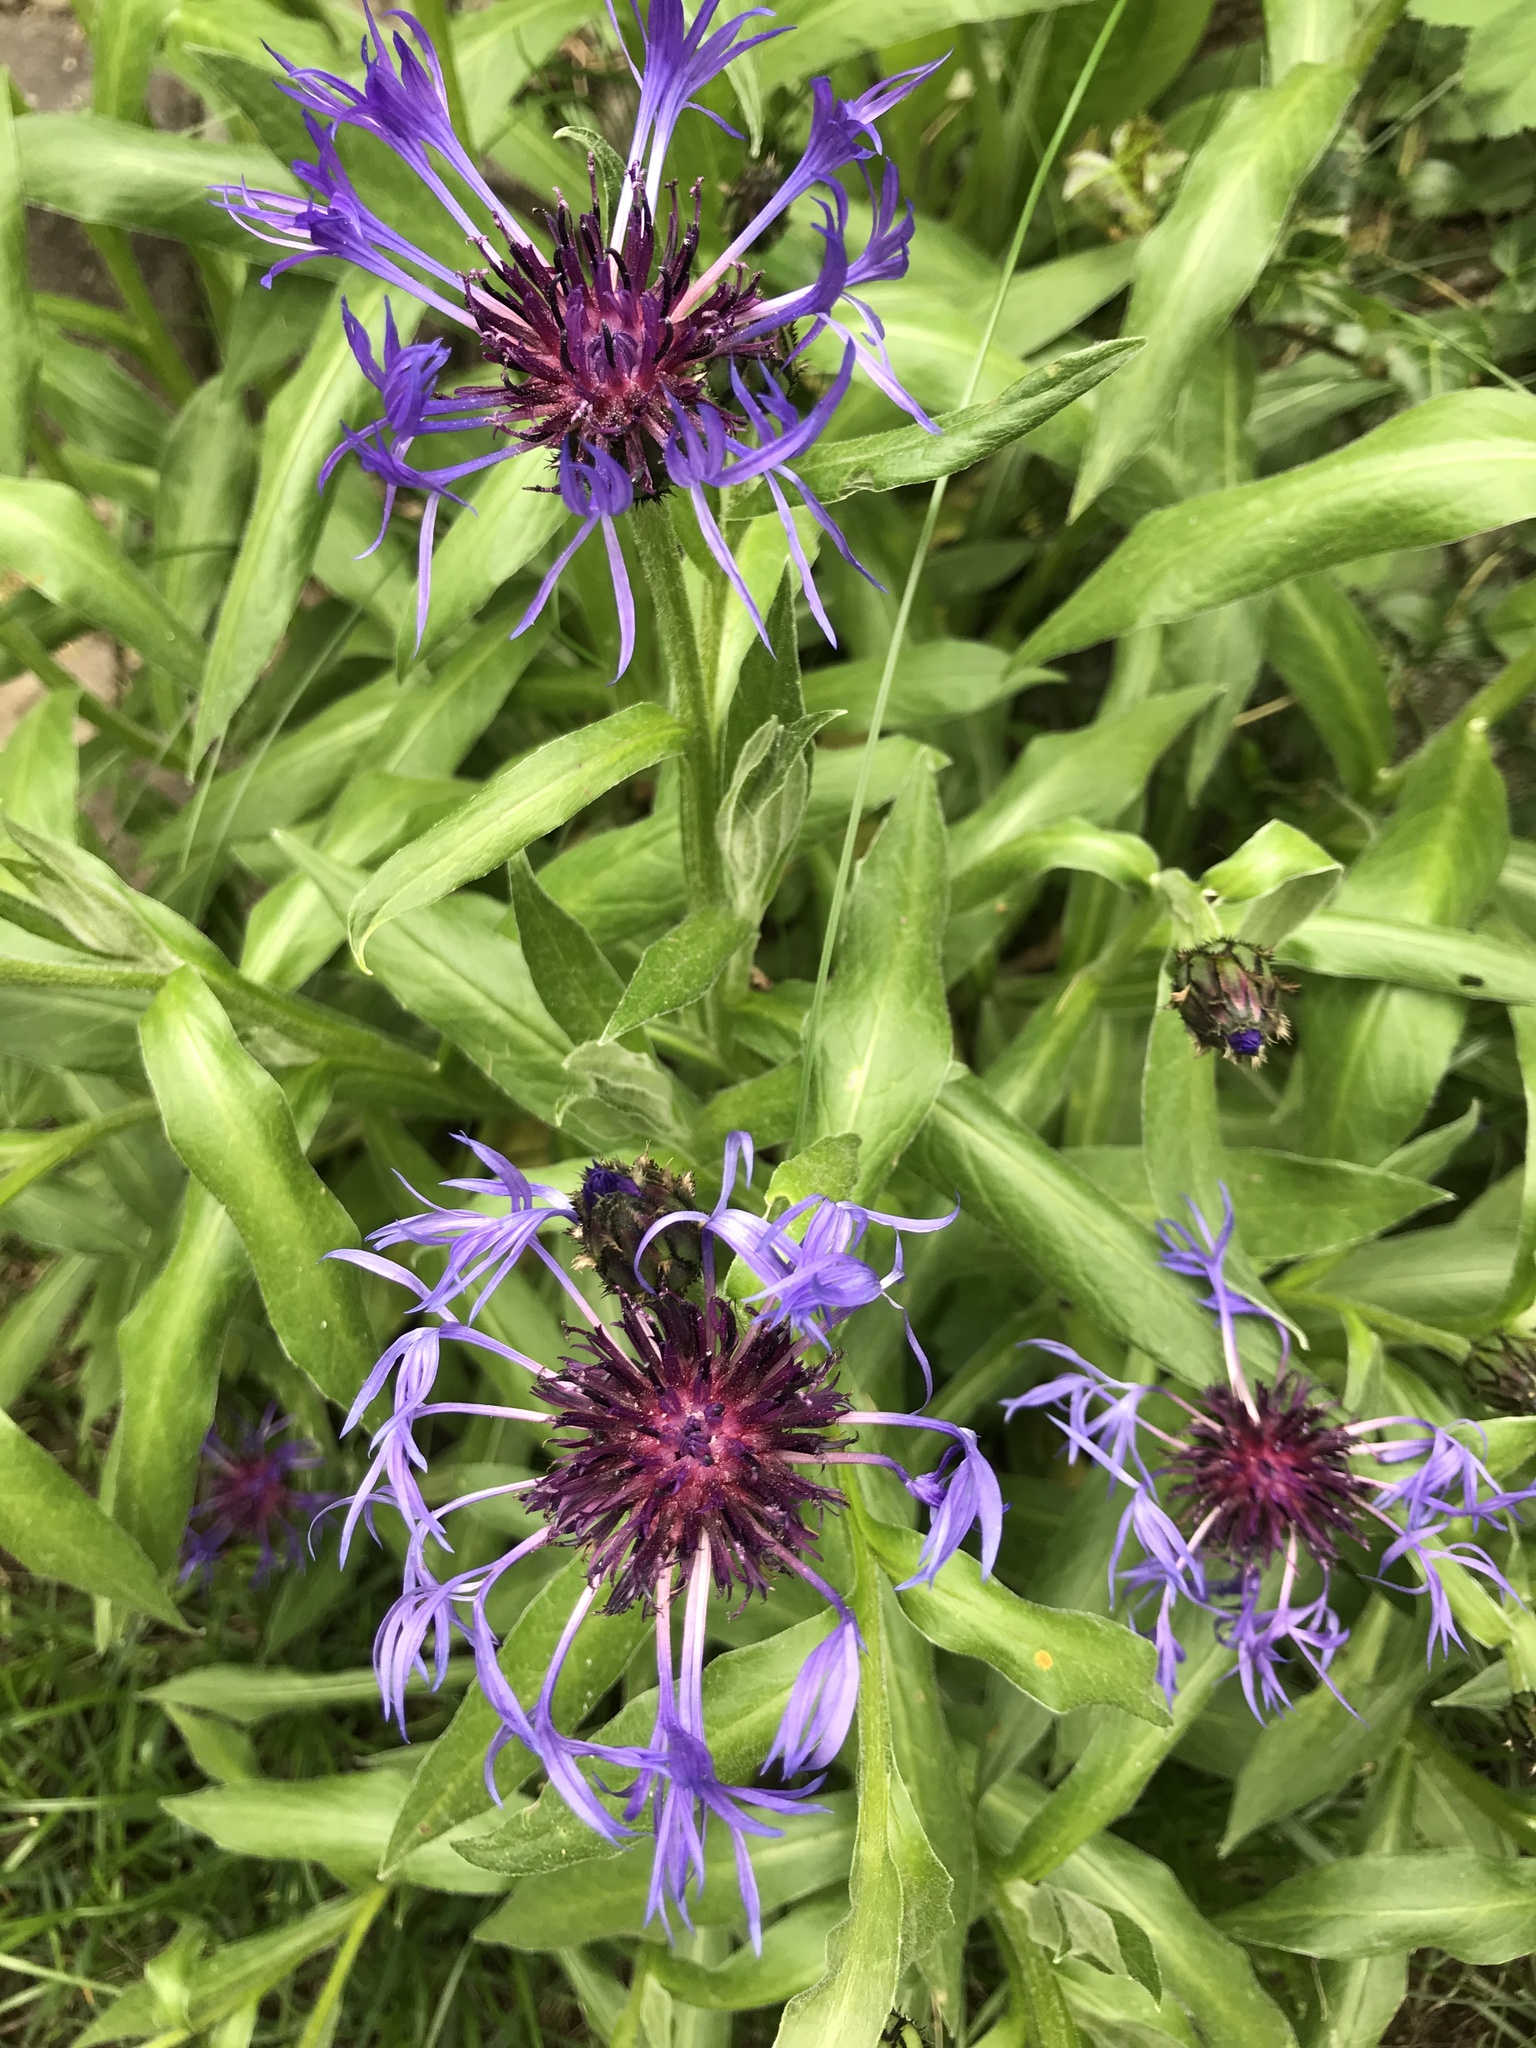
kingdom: Plantae
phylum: Tracheophyta
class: Magnoliopsida
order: Asterales
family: Asteraceae
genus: Centaurea
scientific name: Centaurea montana
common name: Perennial cornflower
